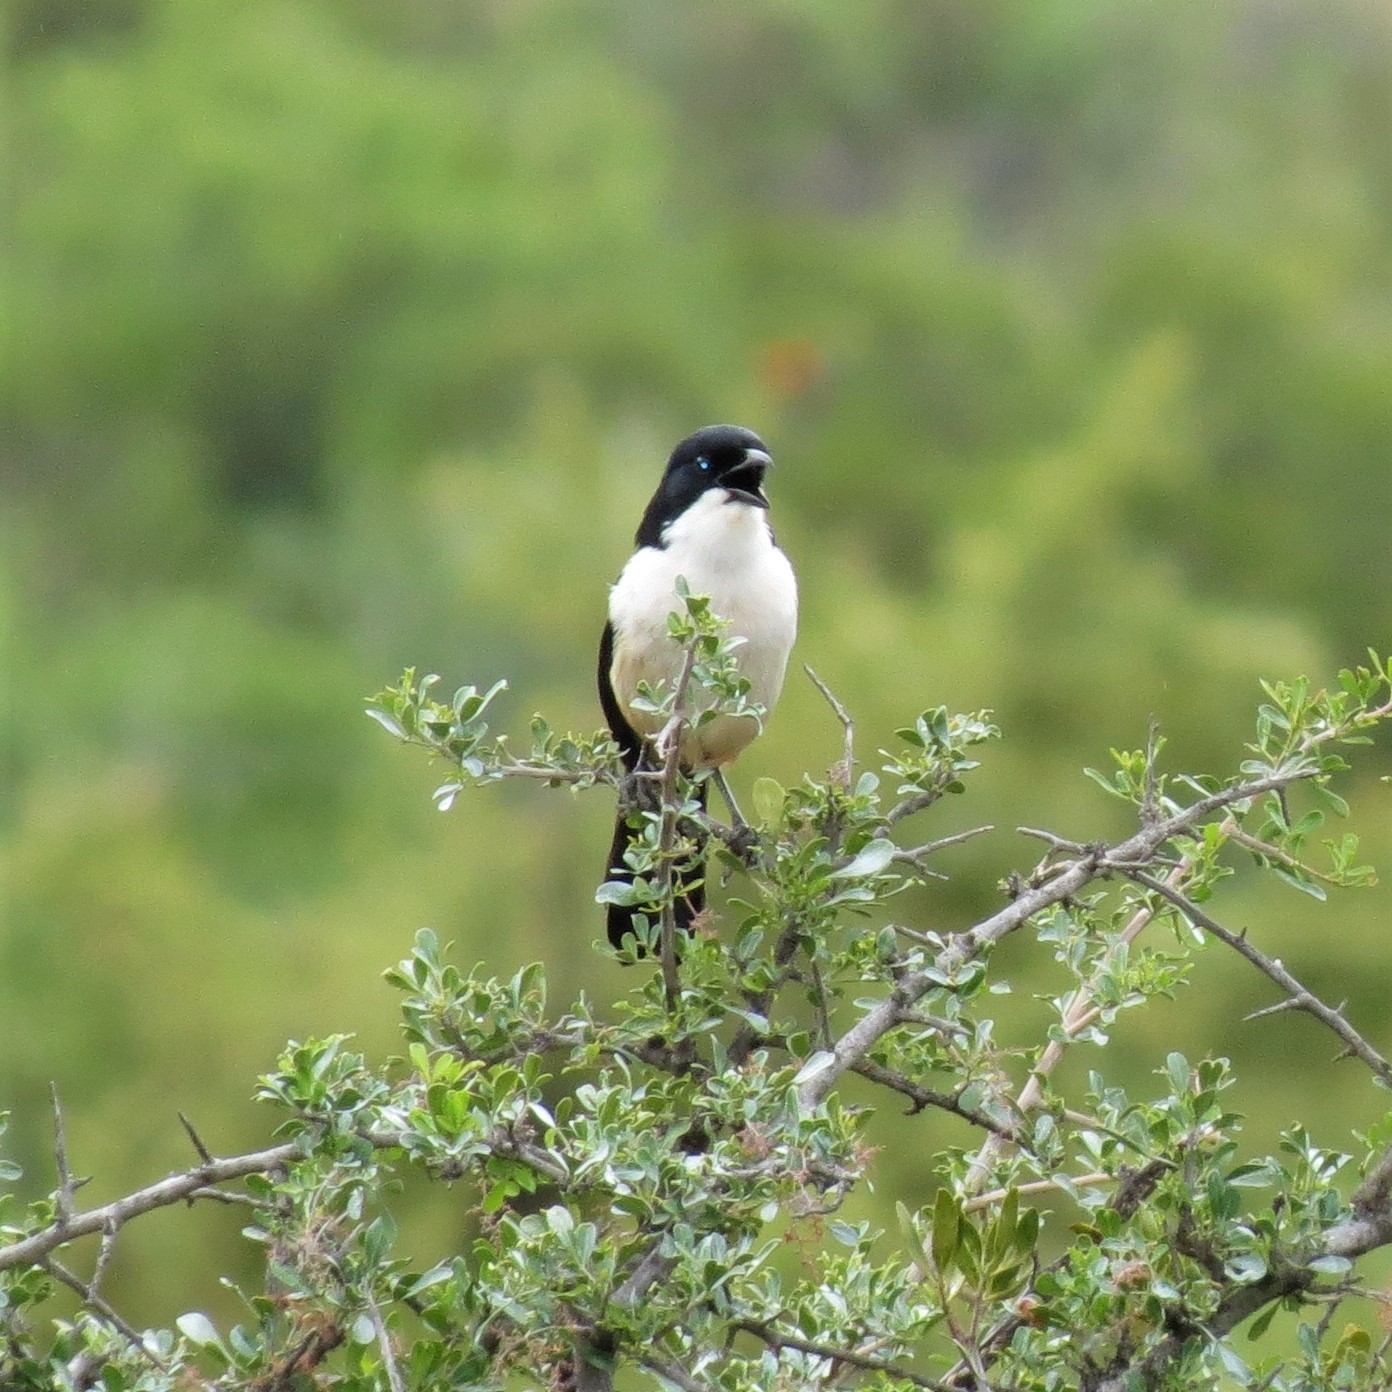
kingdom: Animalia
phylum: Chordata
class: Aves
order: Passeriformes
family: Malaconotidae
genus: Laniarius
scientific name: Laniarius ferrugineus
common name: Southern boubou
